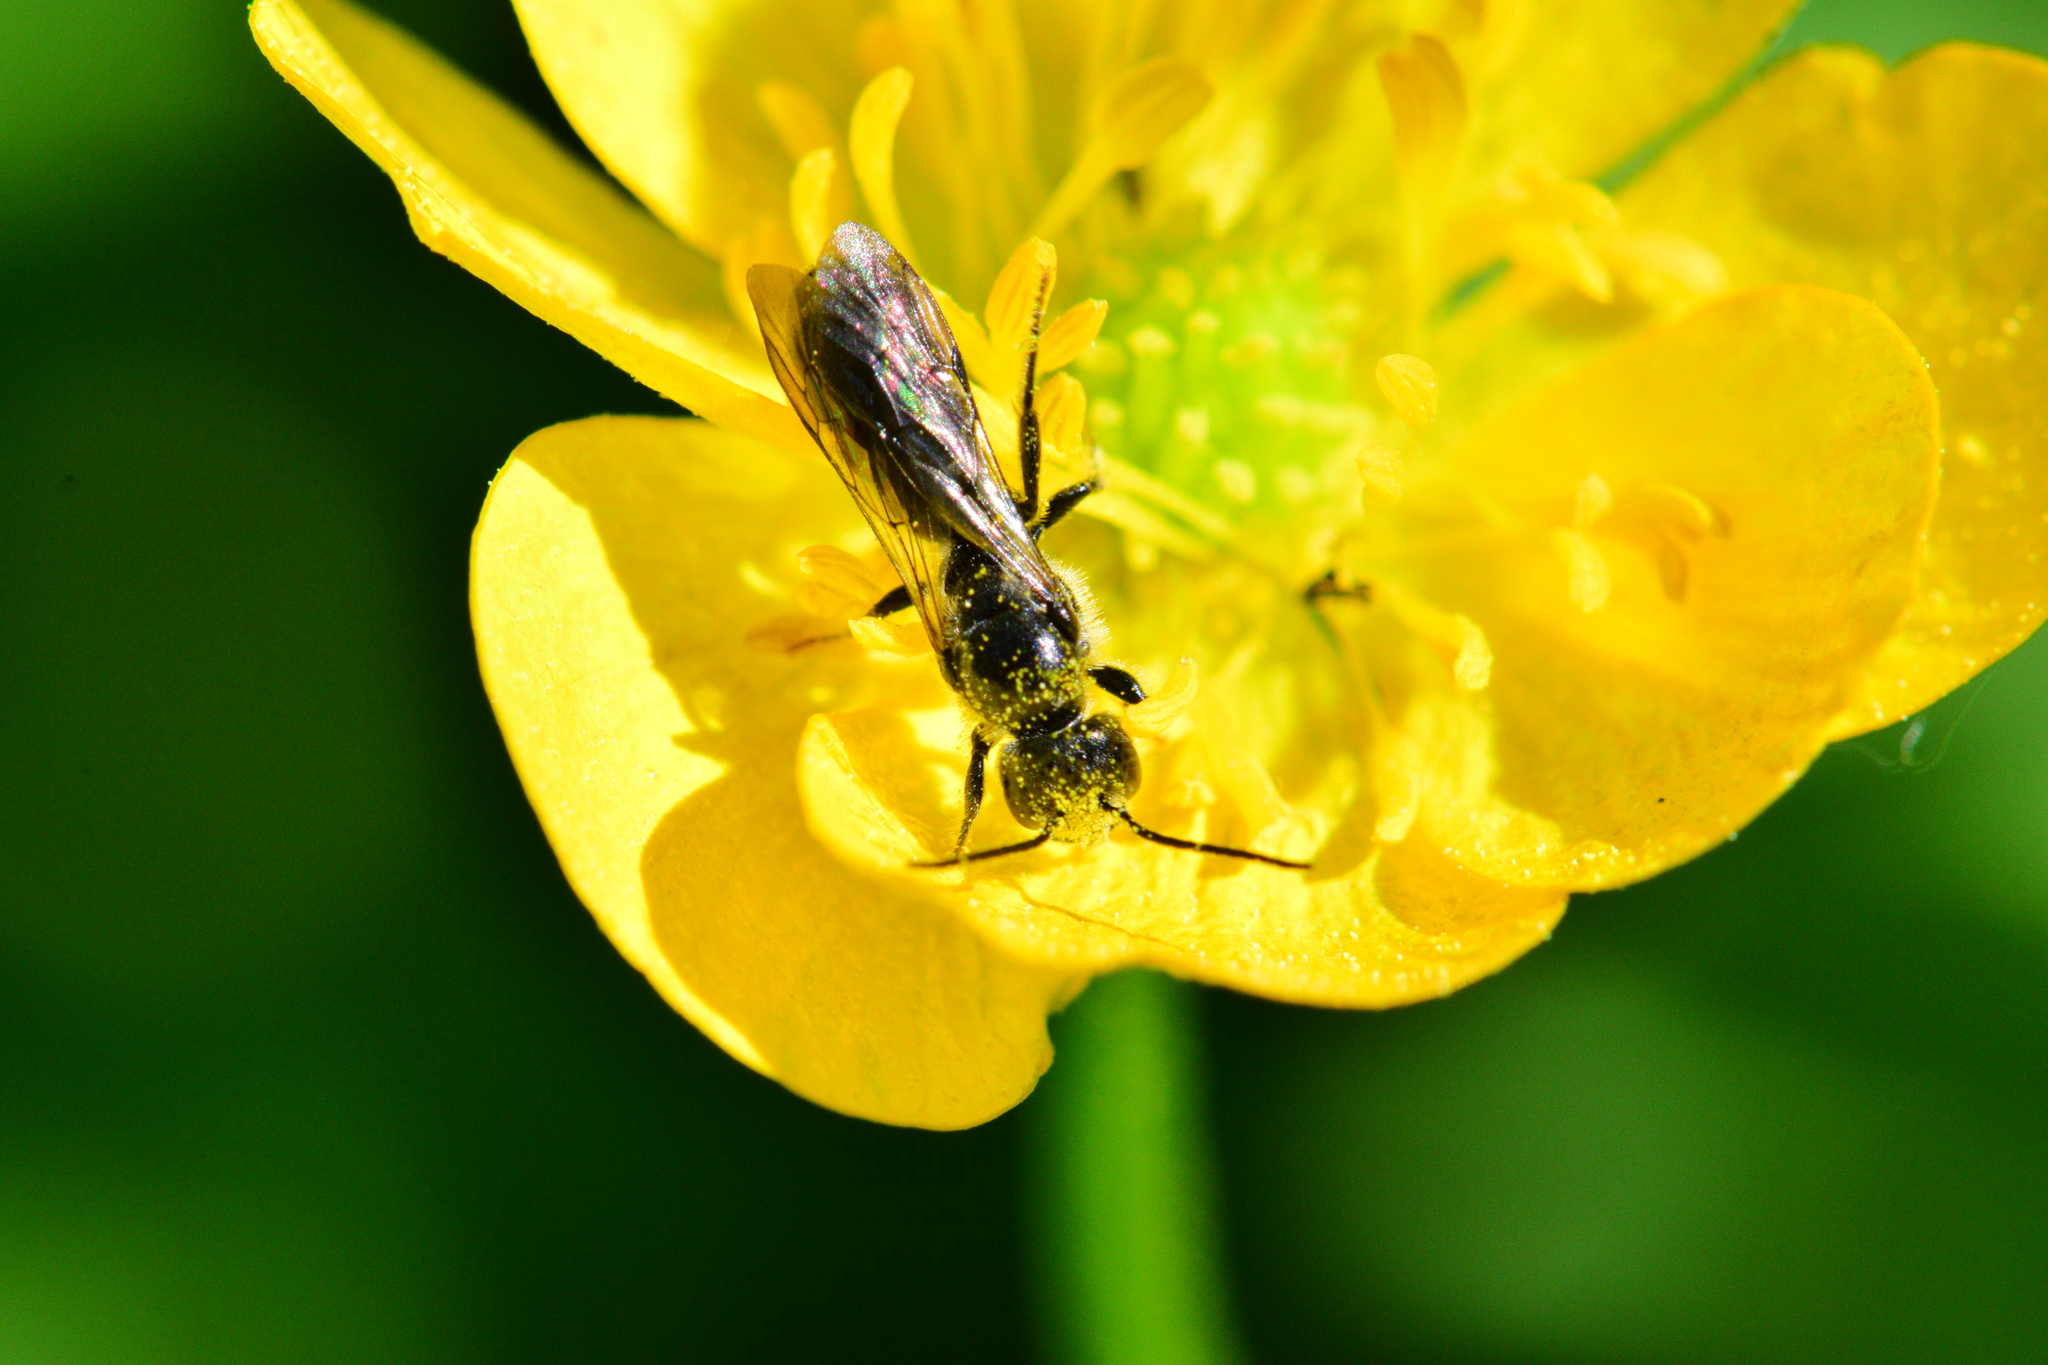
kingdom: Animalia
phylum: Arthropoda
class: Insecta
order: Hymenoptera
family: Megachilidae
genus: Chelostoma
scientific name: Chelostoma philadelphi
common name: Mock-orange scissor bee
